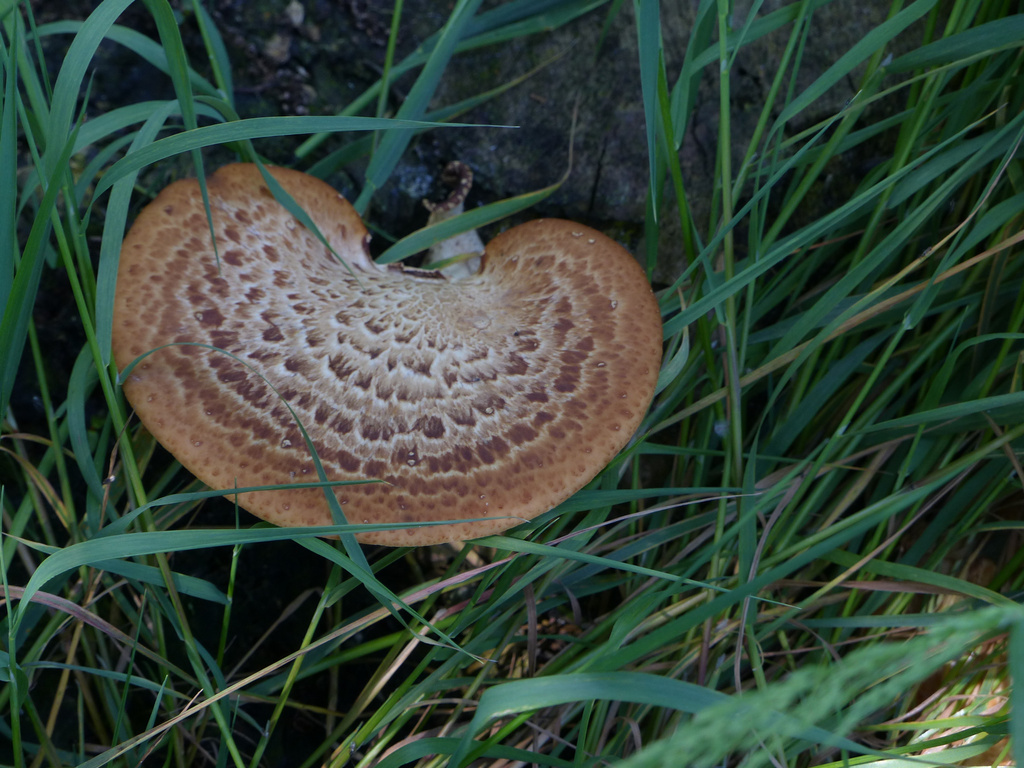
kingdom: Fungi
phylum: Basidiomycota
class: Agaricomycetes
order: Polyporales
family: Polyporaceae
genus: Cerioporus
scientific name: Cerioporus squamosus
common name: Dryad's saddle
